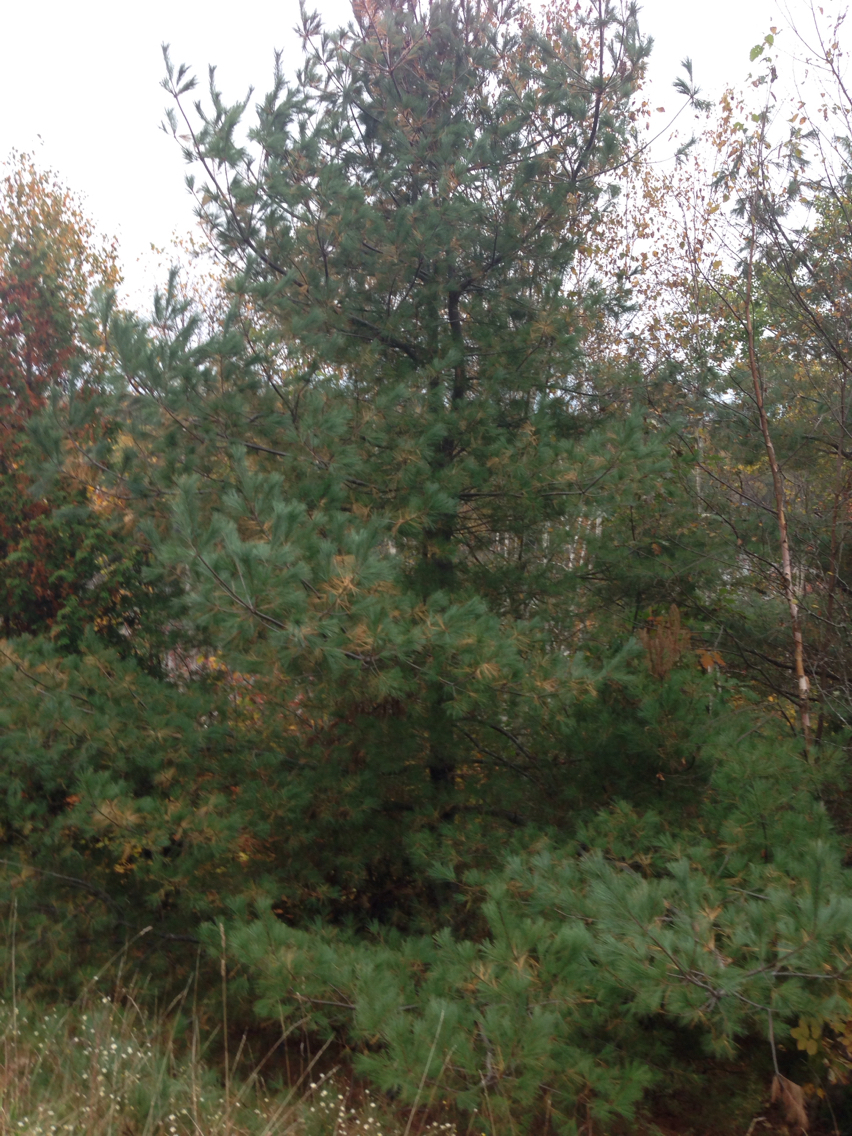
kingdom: Plantae
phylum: Tracheophyta
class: Pinopsida
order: Pinales
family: Pinaceae
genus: Pinus
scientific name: Pinus strobus
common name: Weymouth pine
